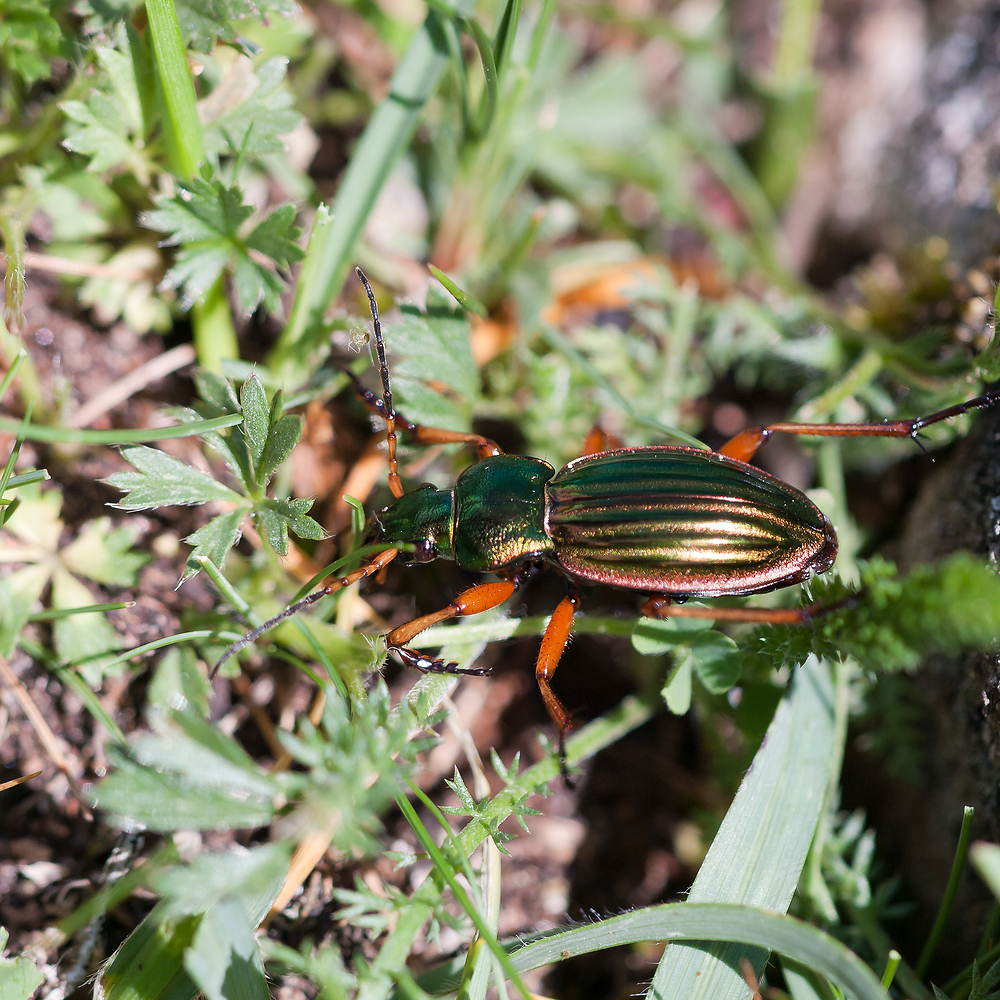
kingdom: Animalia
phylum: Arthropoda
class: Insecta
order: Coleoptera
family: Carabidae
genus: Carabus
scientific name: Carabus auratus
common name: Golden ground beetle
